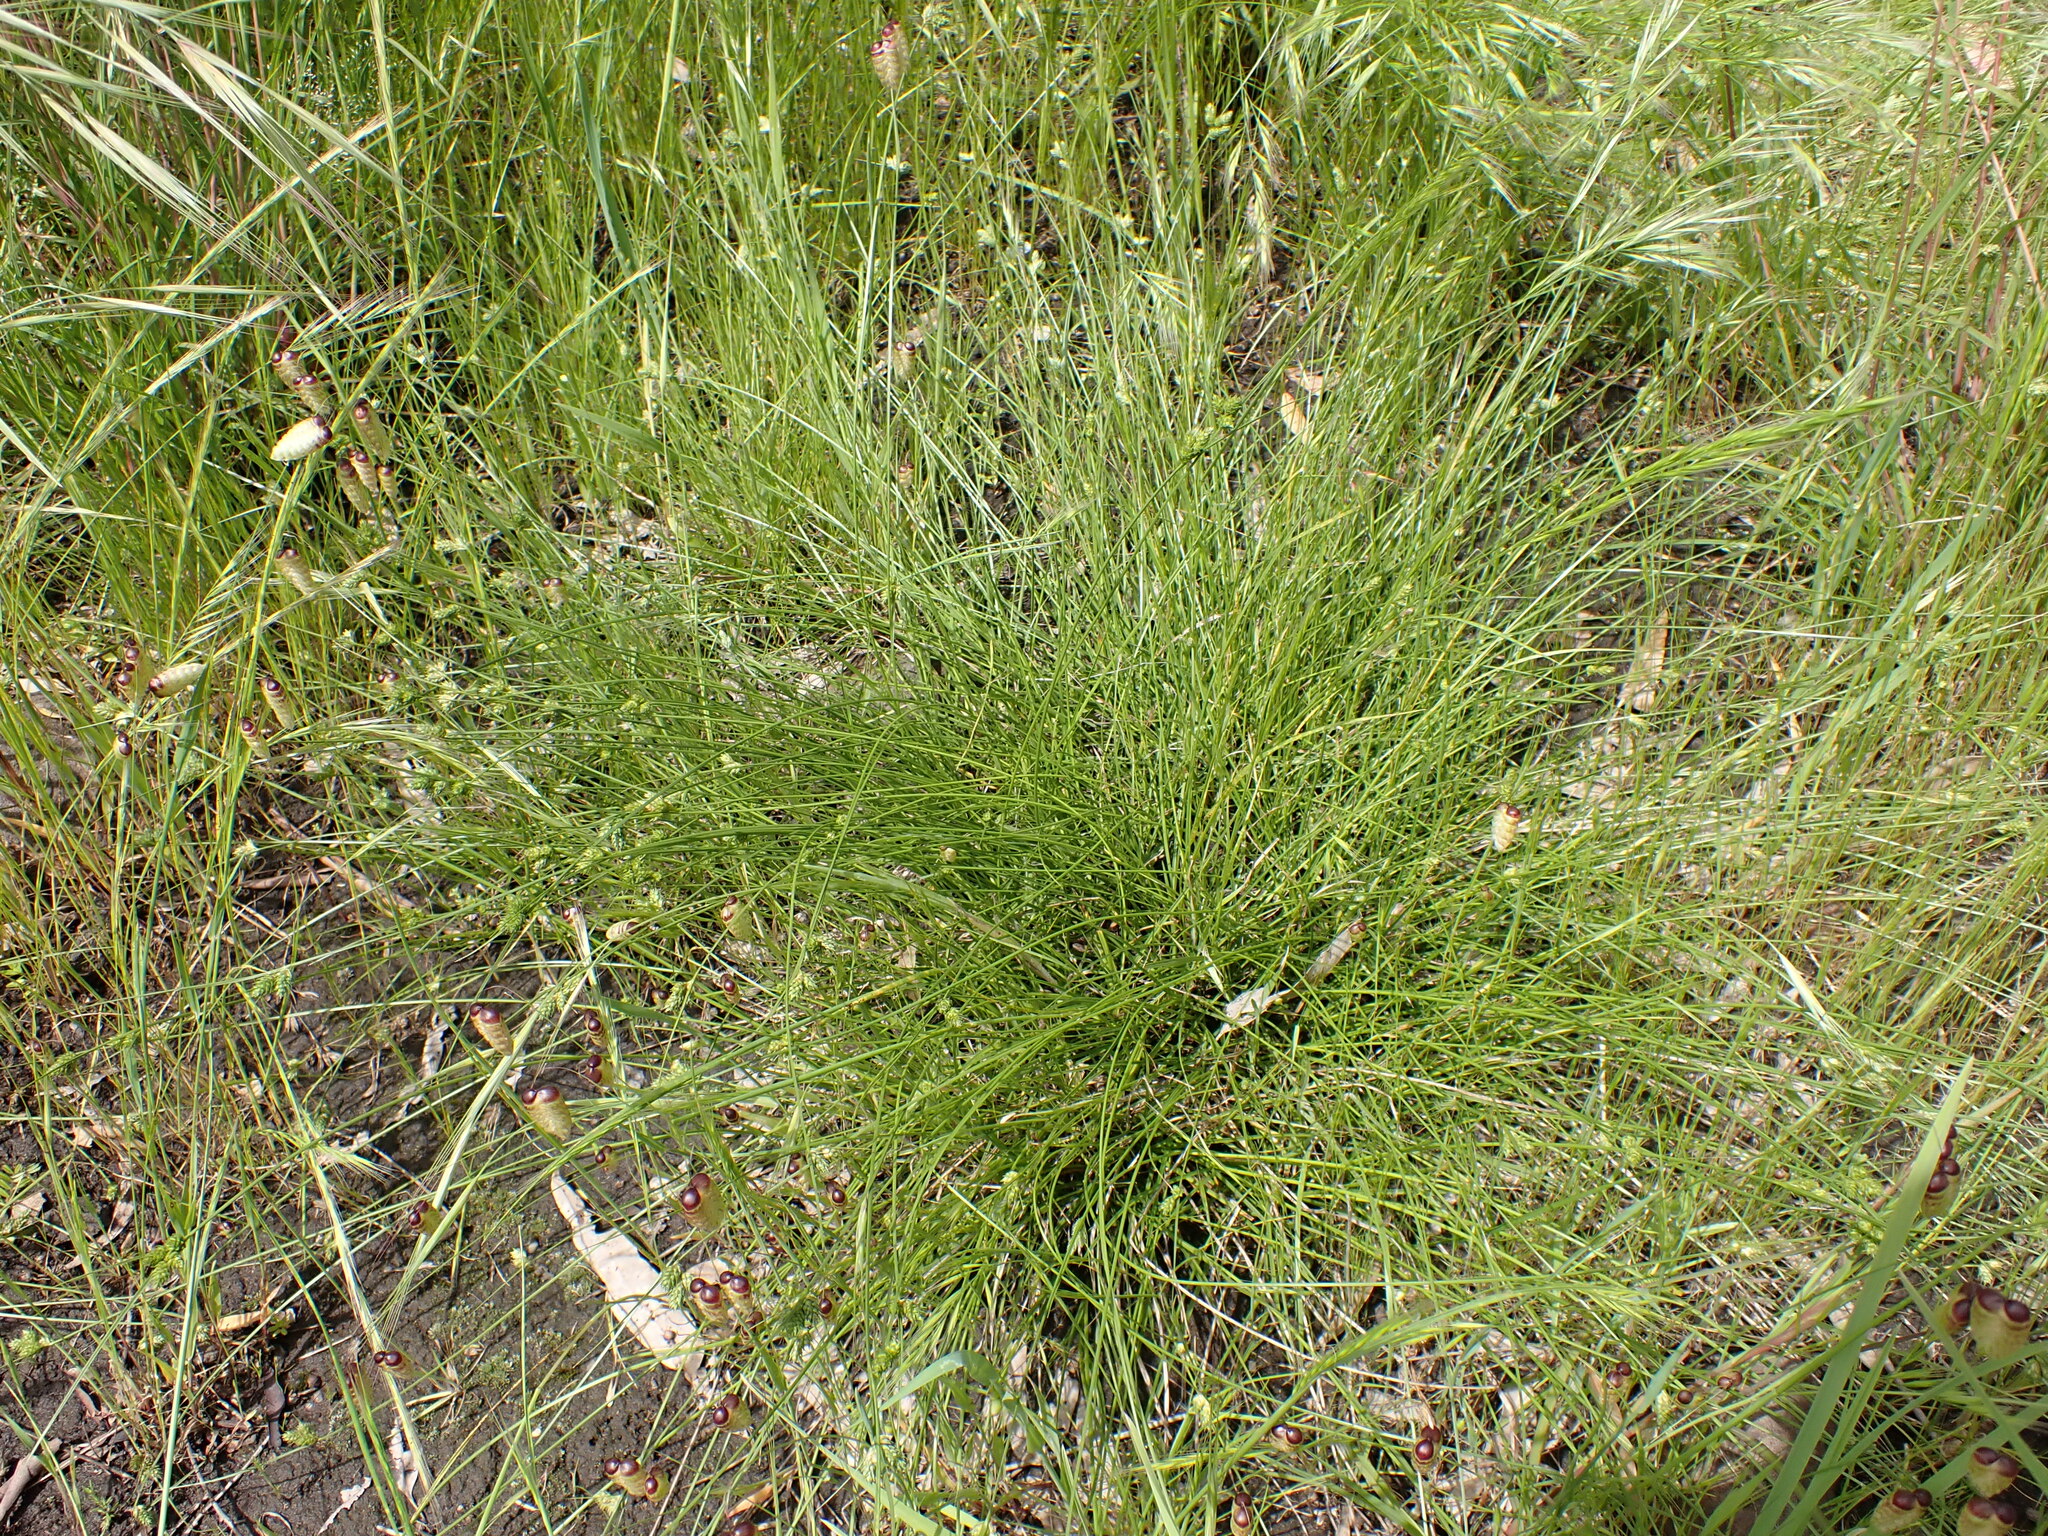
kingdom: Plantae
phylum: Tracheophyta
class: Liliopsida
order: Poales
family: Cyperaceae
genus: Carex
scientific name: Carex inversa
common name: Knob sedge
